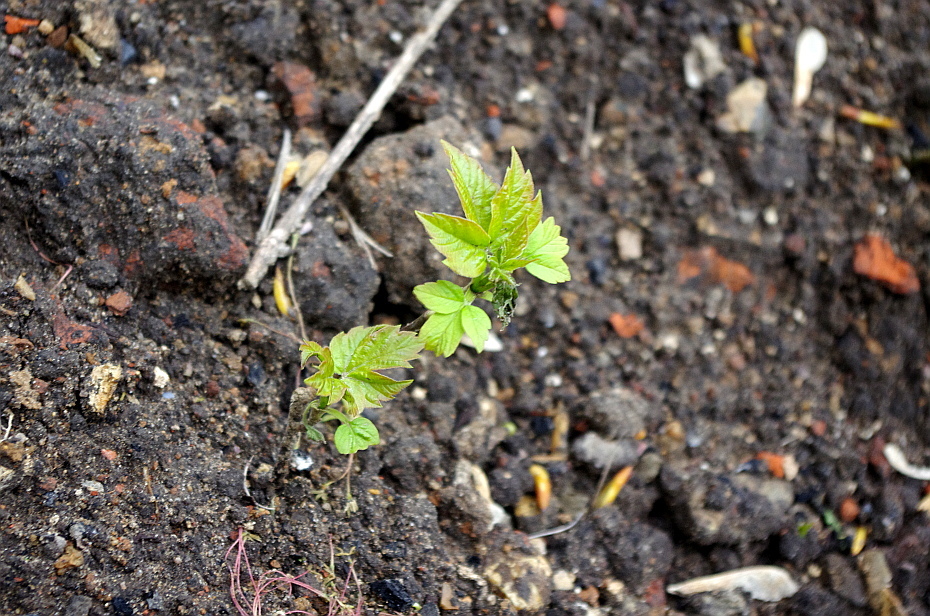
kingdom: Plantae
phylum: Tracheophyta
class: Magnoliopsida
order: Sapindales
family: Sapindaceae
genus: Acer
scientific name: Acer negundo
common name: Ashleaf maple
